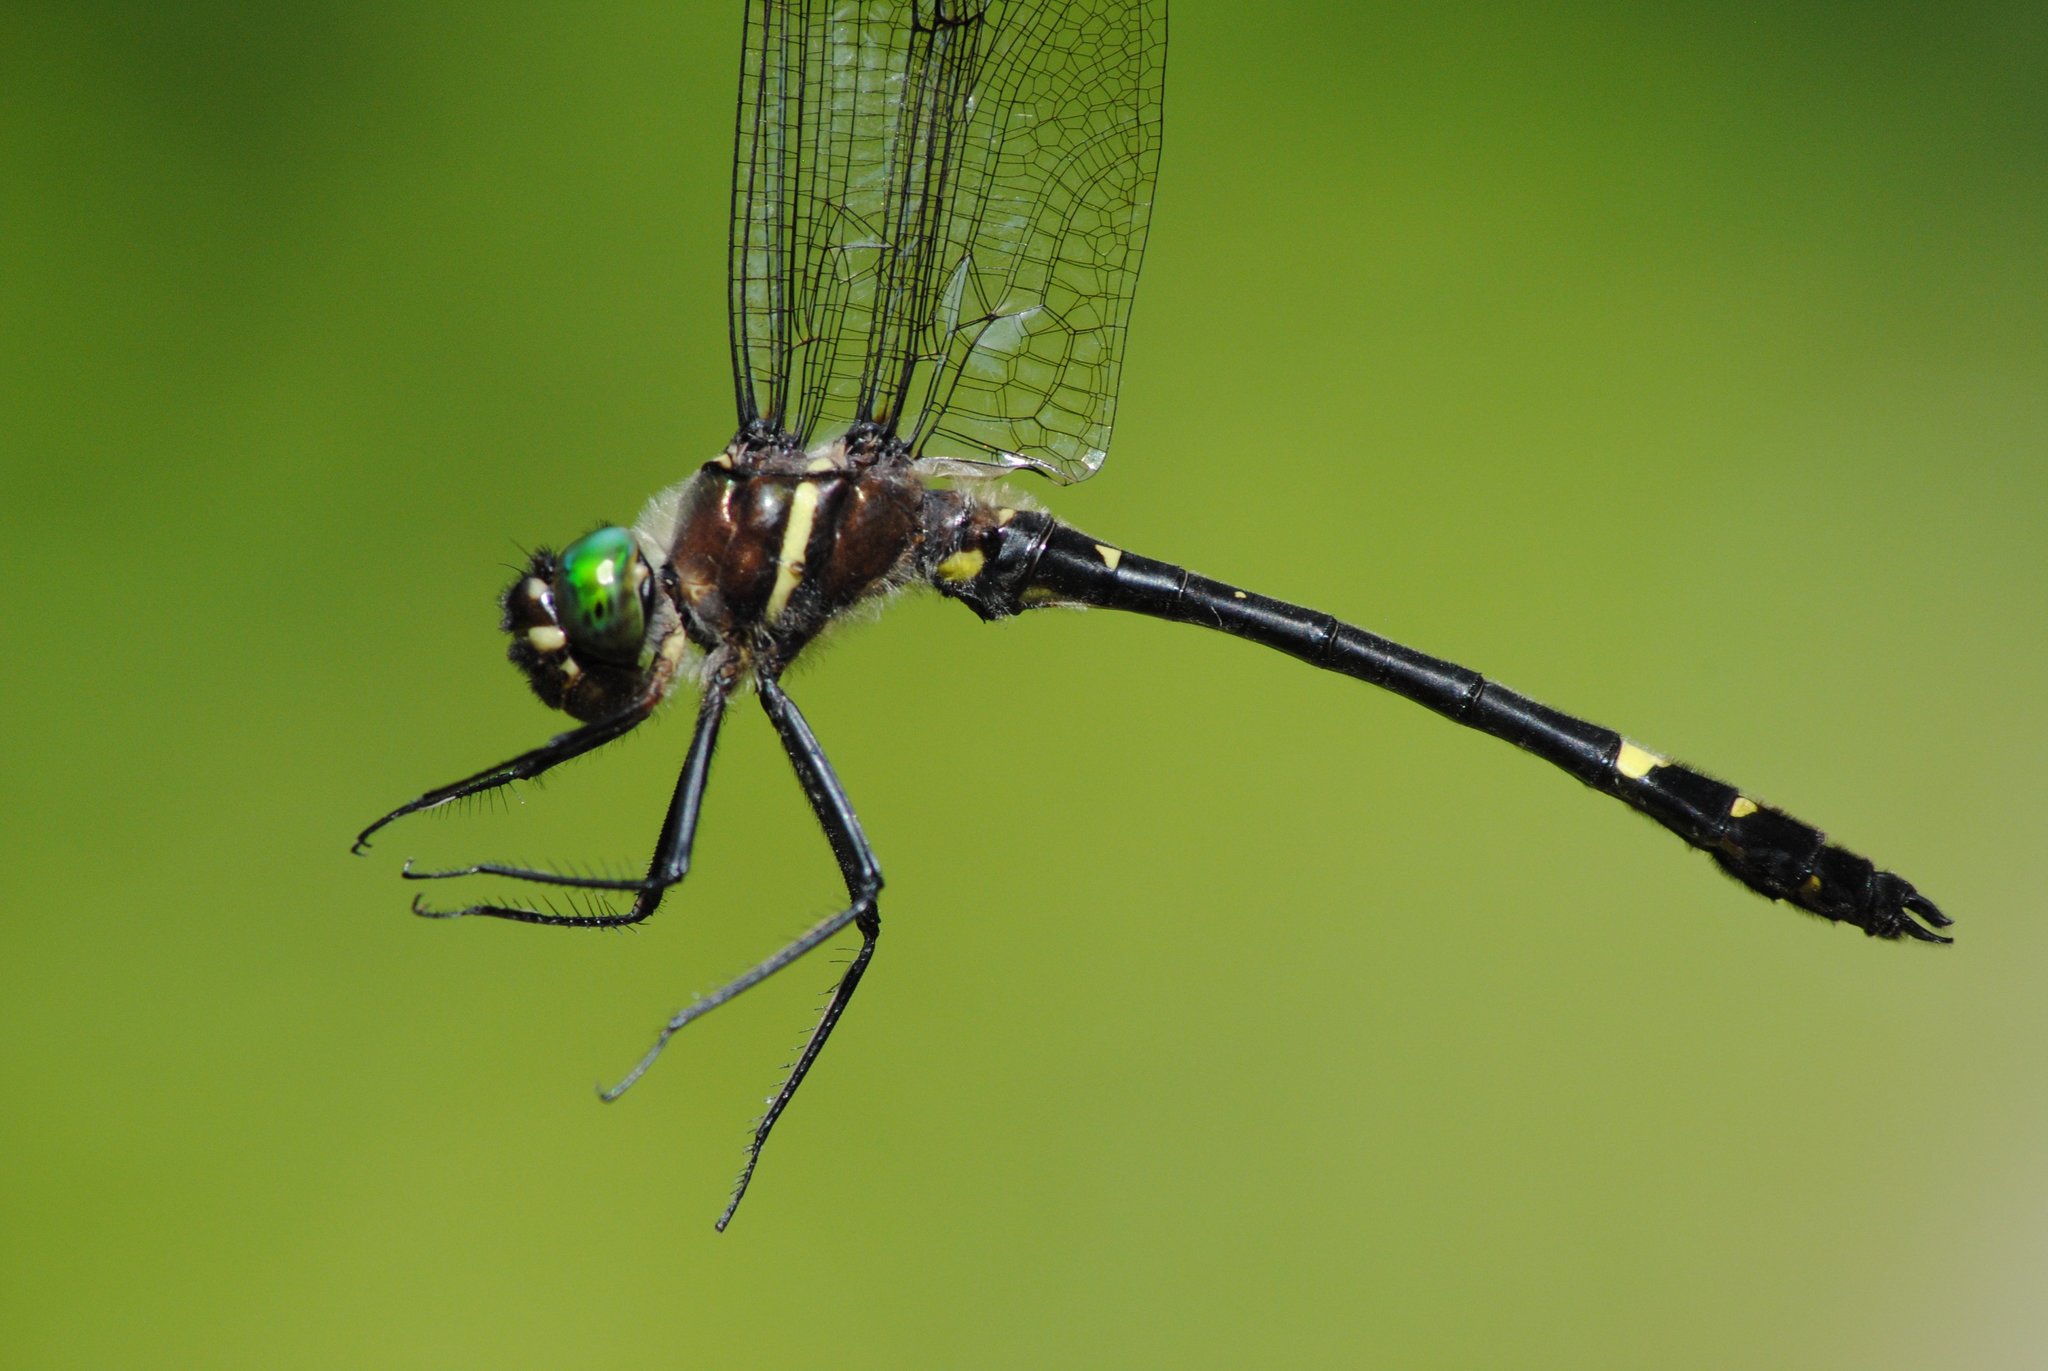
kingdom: Animalia
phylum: Arthropoda
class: Insecta
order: Odonata
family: Macromiidae
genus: Macromia
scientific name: Macromia illinoiensis
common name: Swift river cruiser
